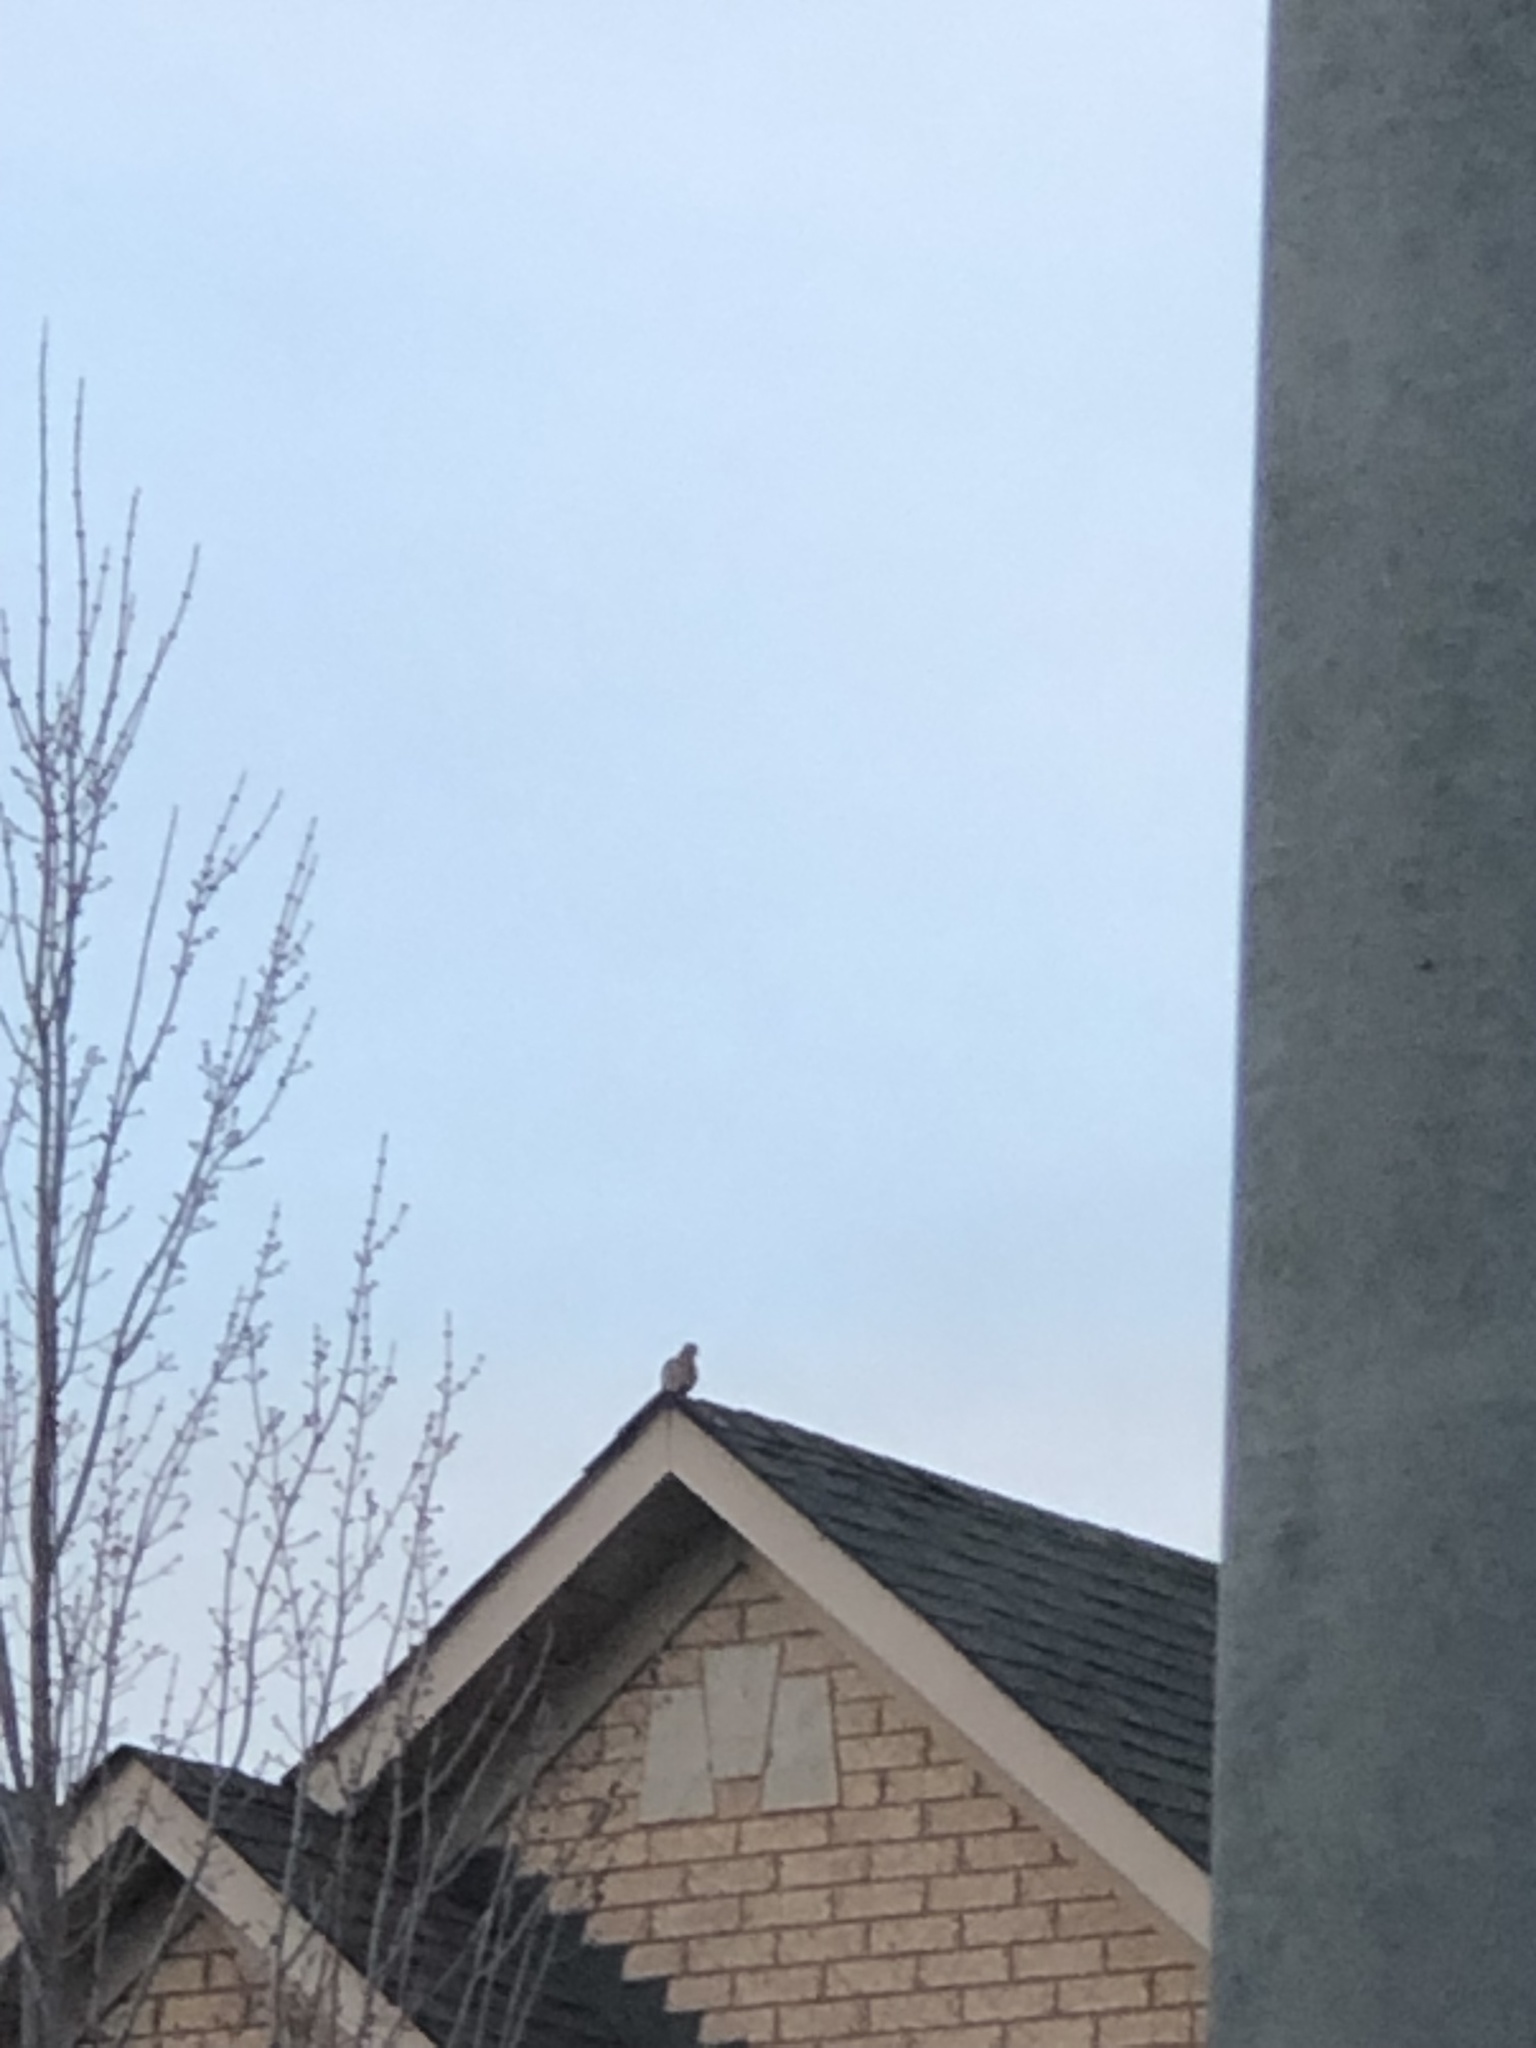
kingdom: Animalia
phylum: Chordata
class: Aves
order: Columbiformes
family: Columbidae
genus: Zenaida
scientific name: Zenaida macroura
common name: Mourning dove
